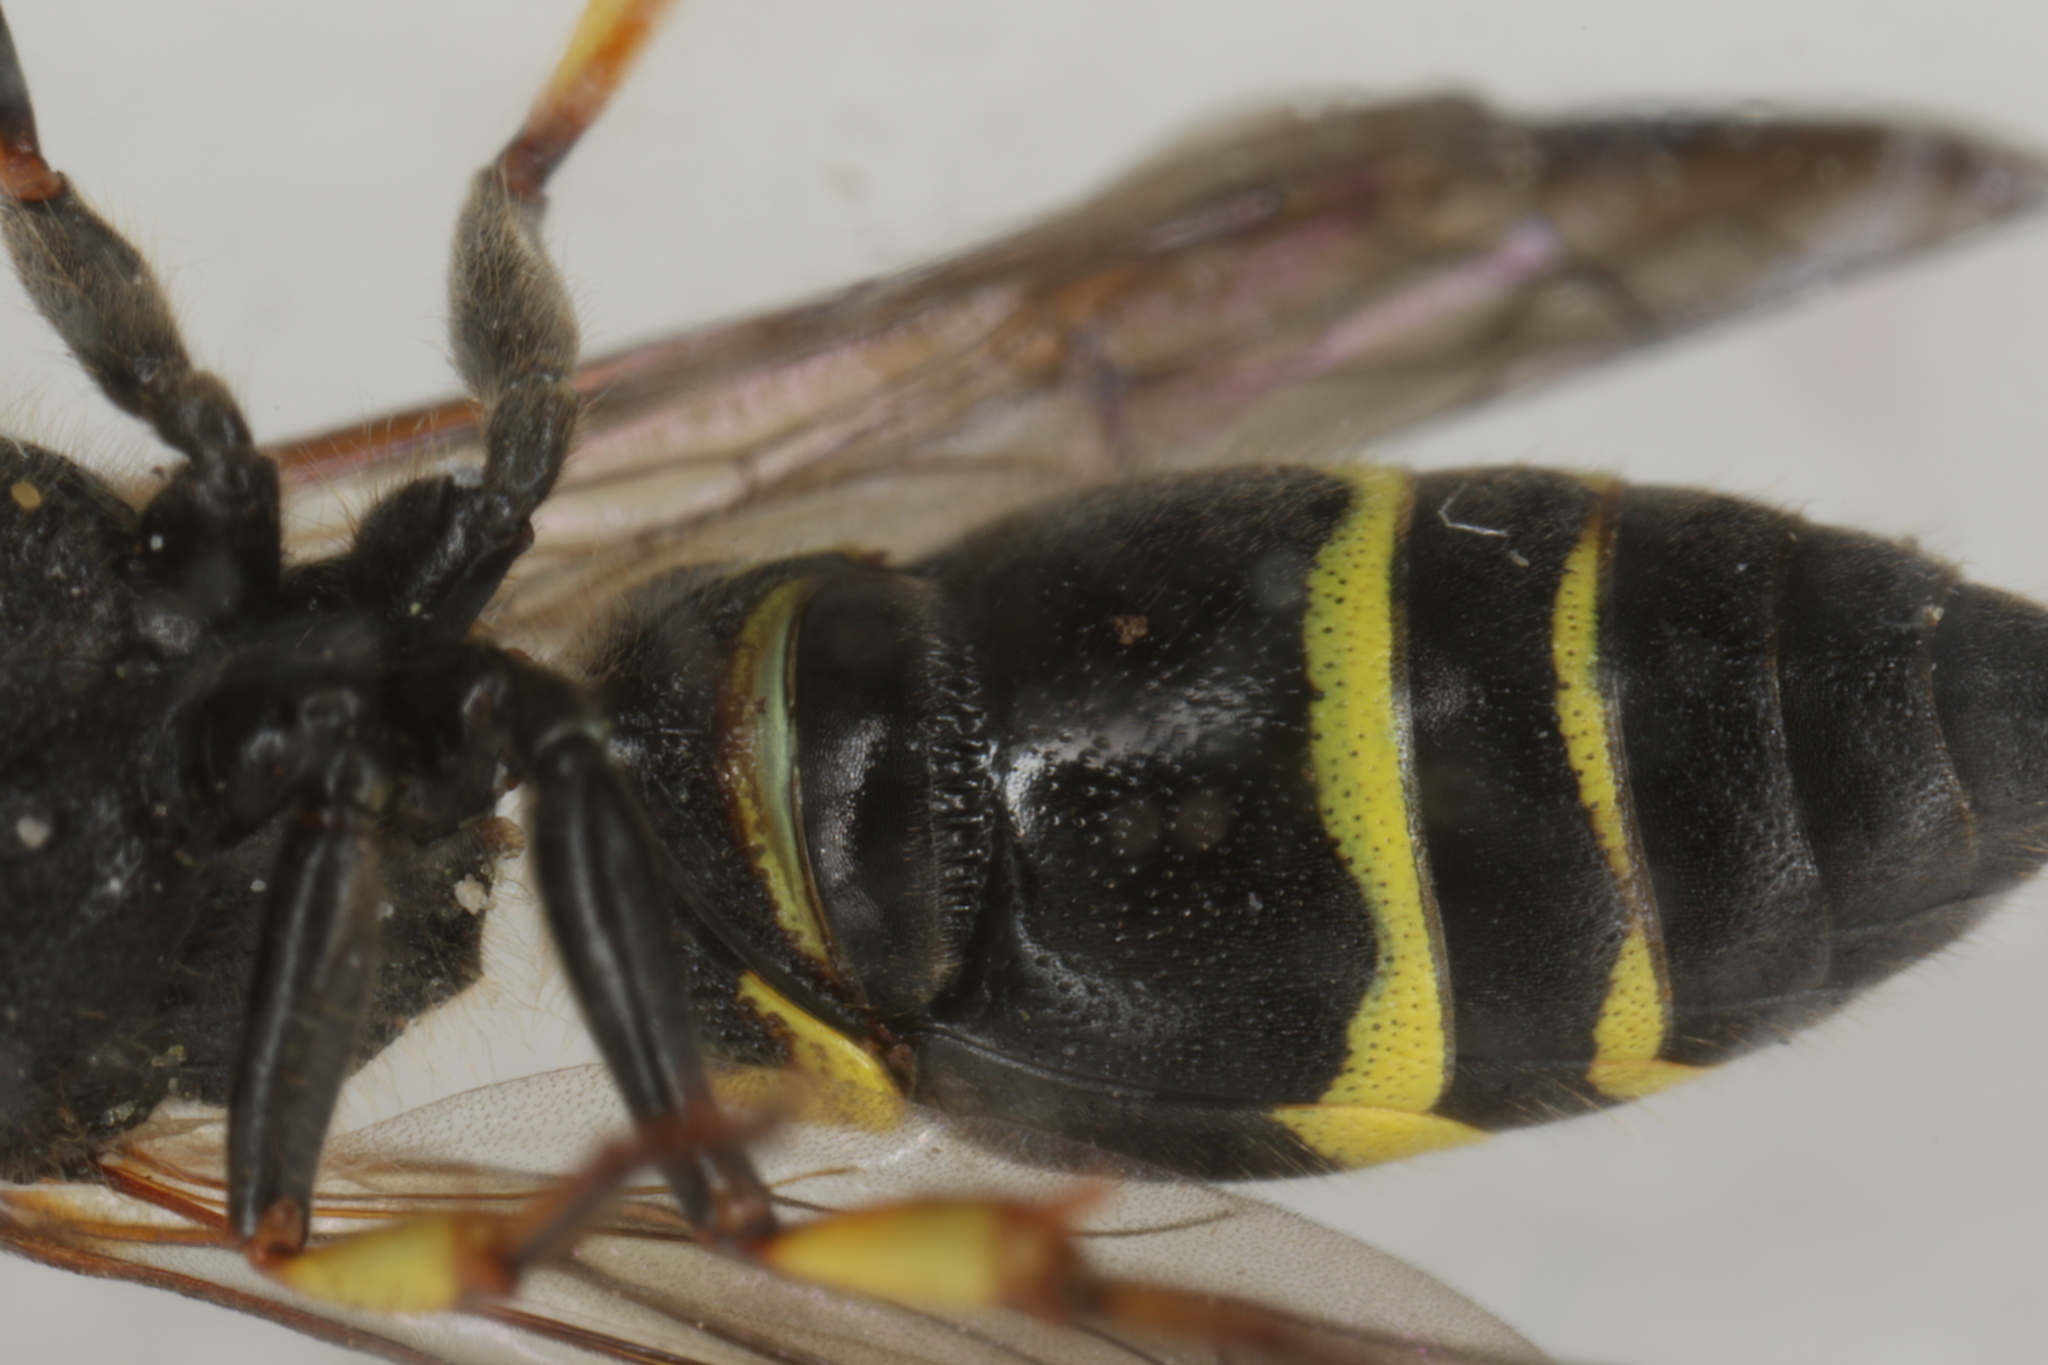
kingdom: Animalia
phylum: Arthropoda
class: Insecta
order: Hymenoptera
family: Vespidae
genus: Ancistrocerus
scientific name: Ancistrocerus trifasciatus
